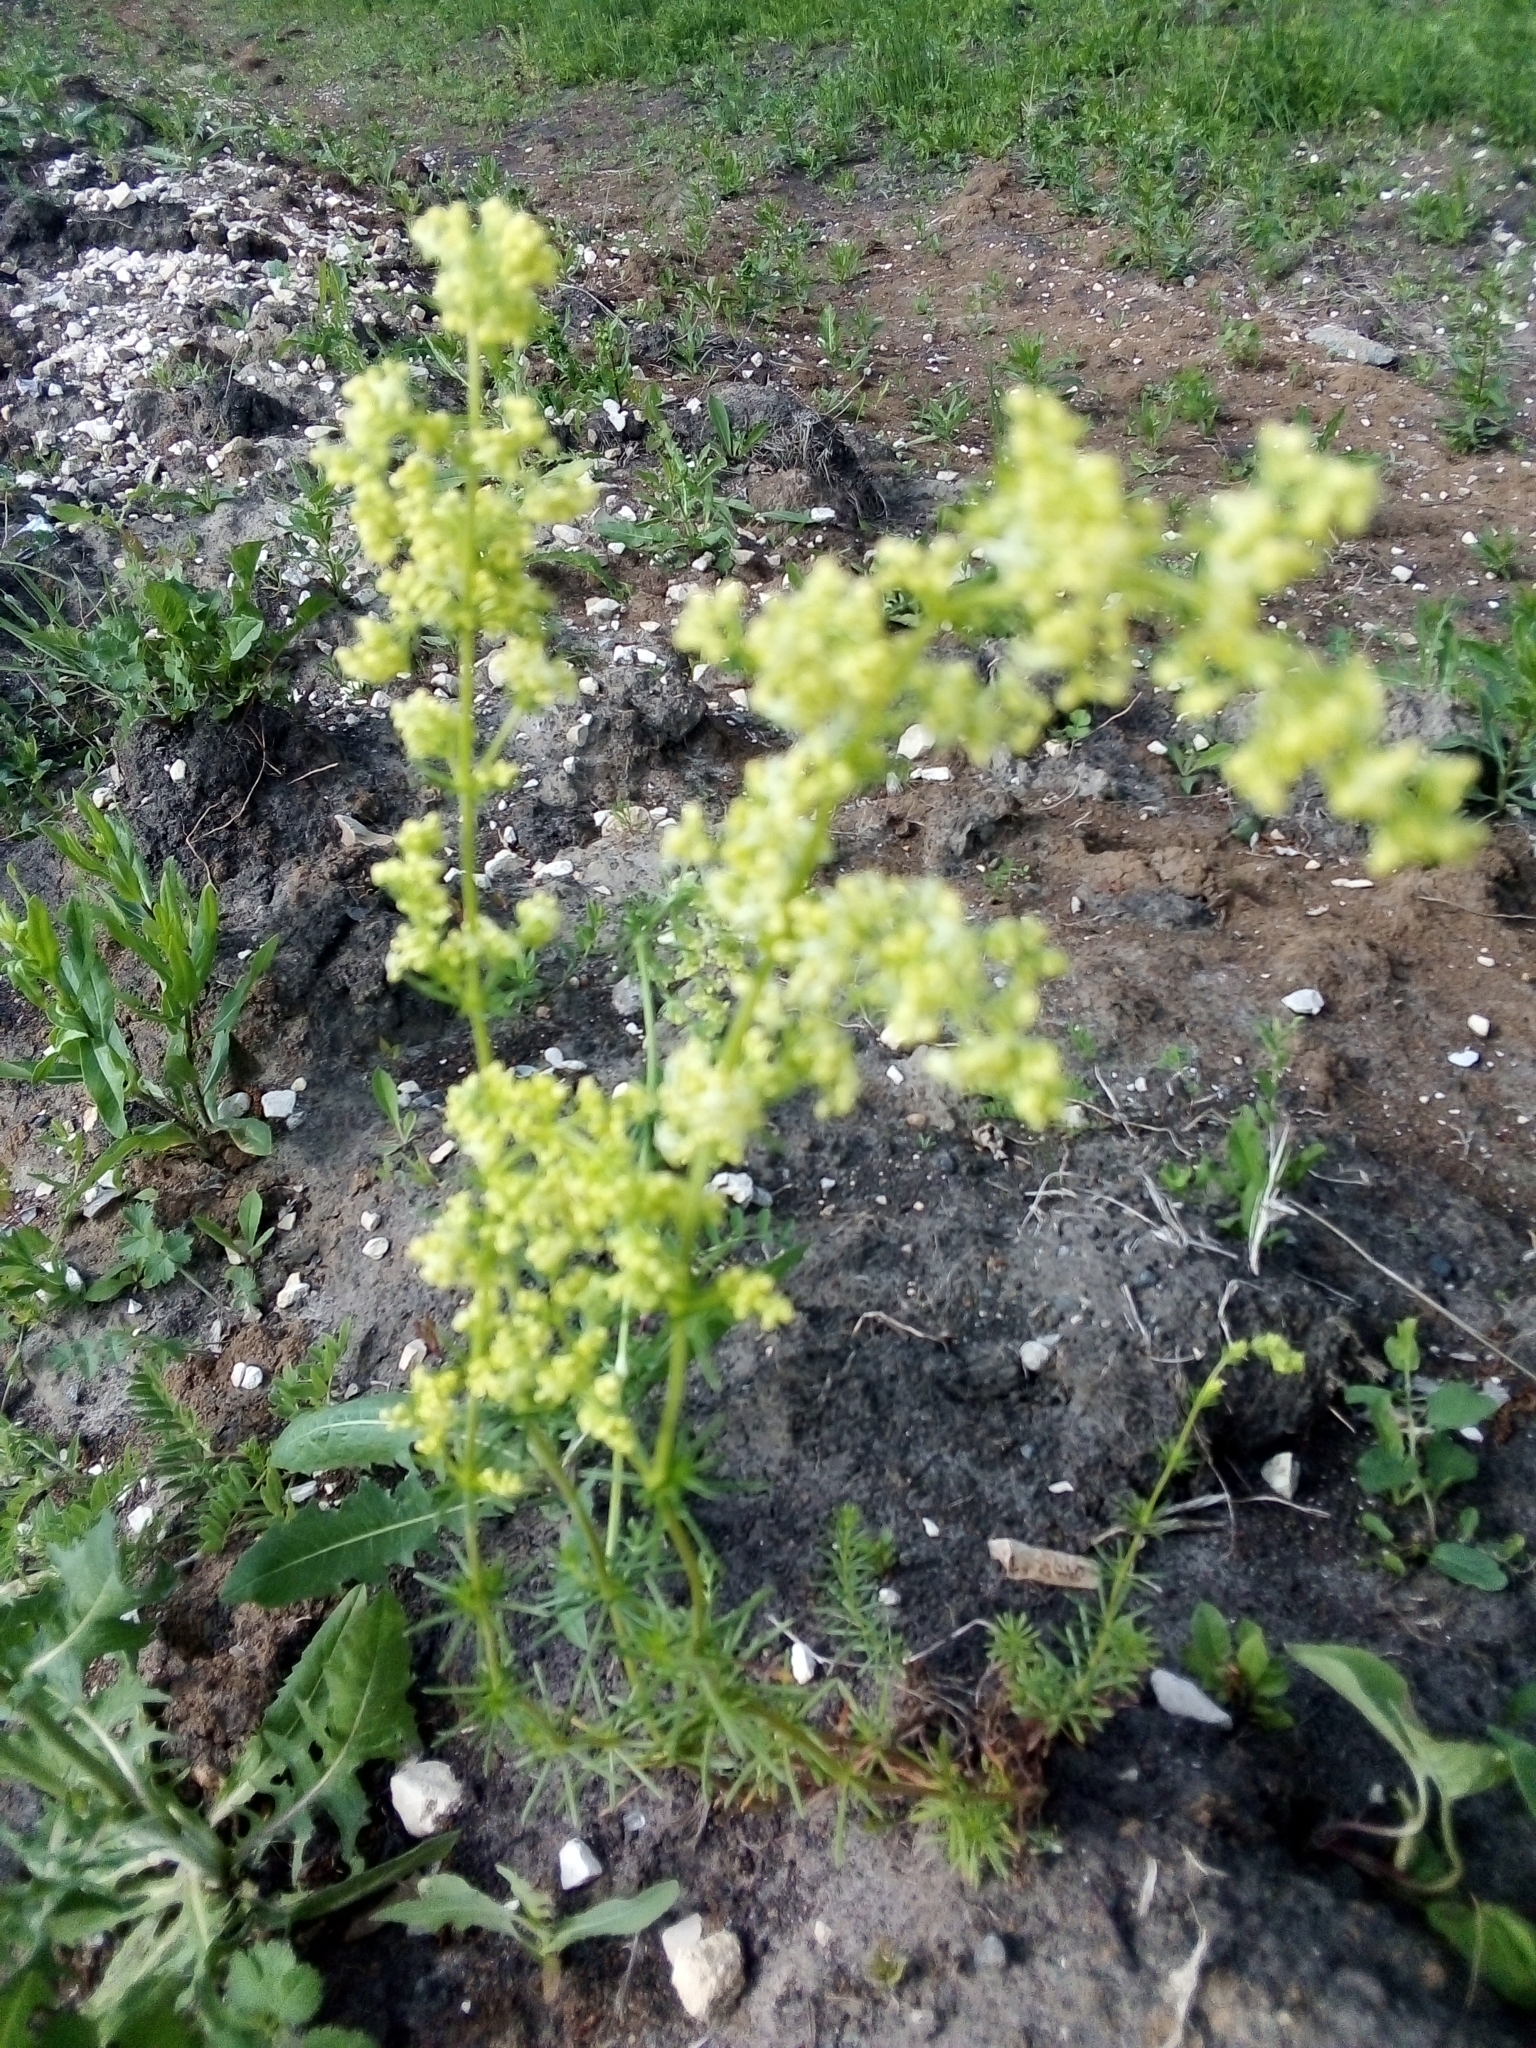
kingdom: Plantae
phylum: Tracheophyta
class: Magnoliopsida
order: Gentianales
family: Rubiaceae
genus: Galium
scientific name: Galium pomeranicum
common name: Bedstraw
